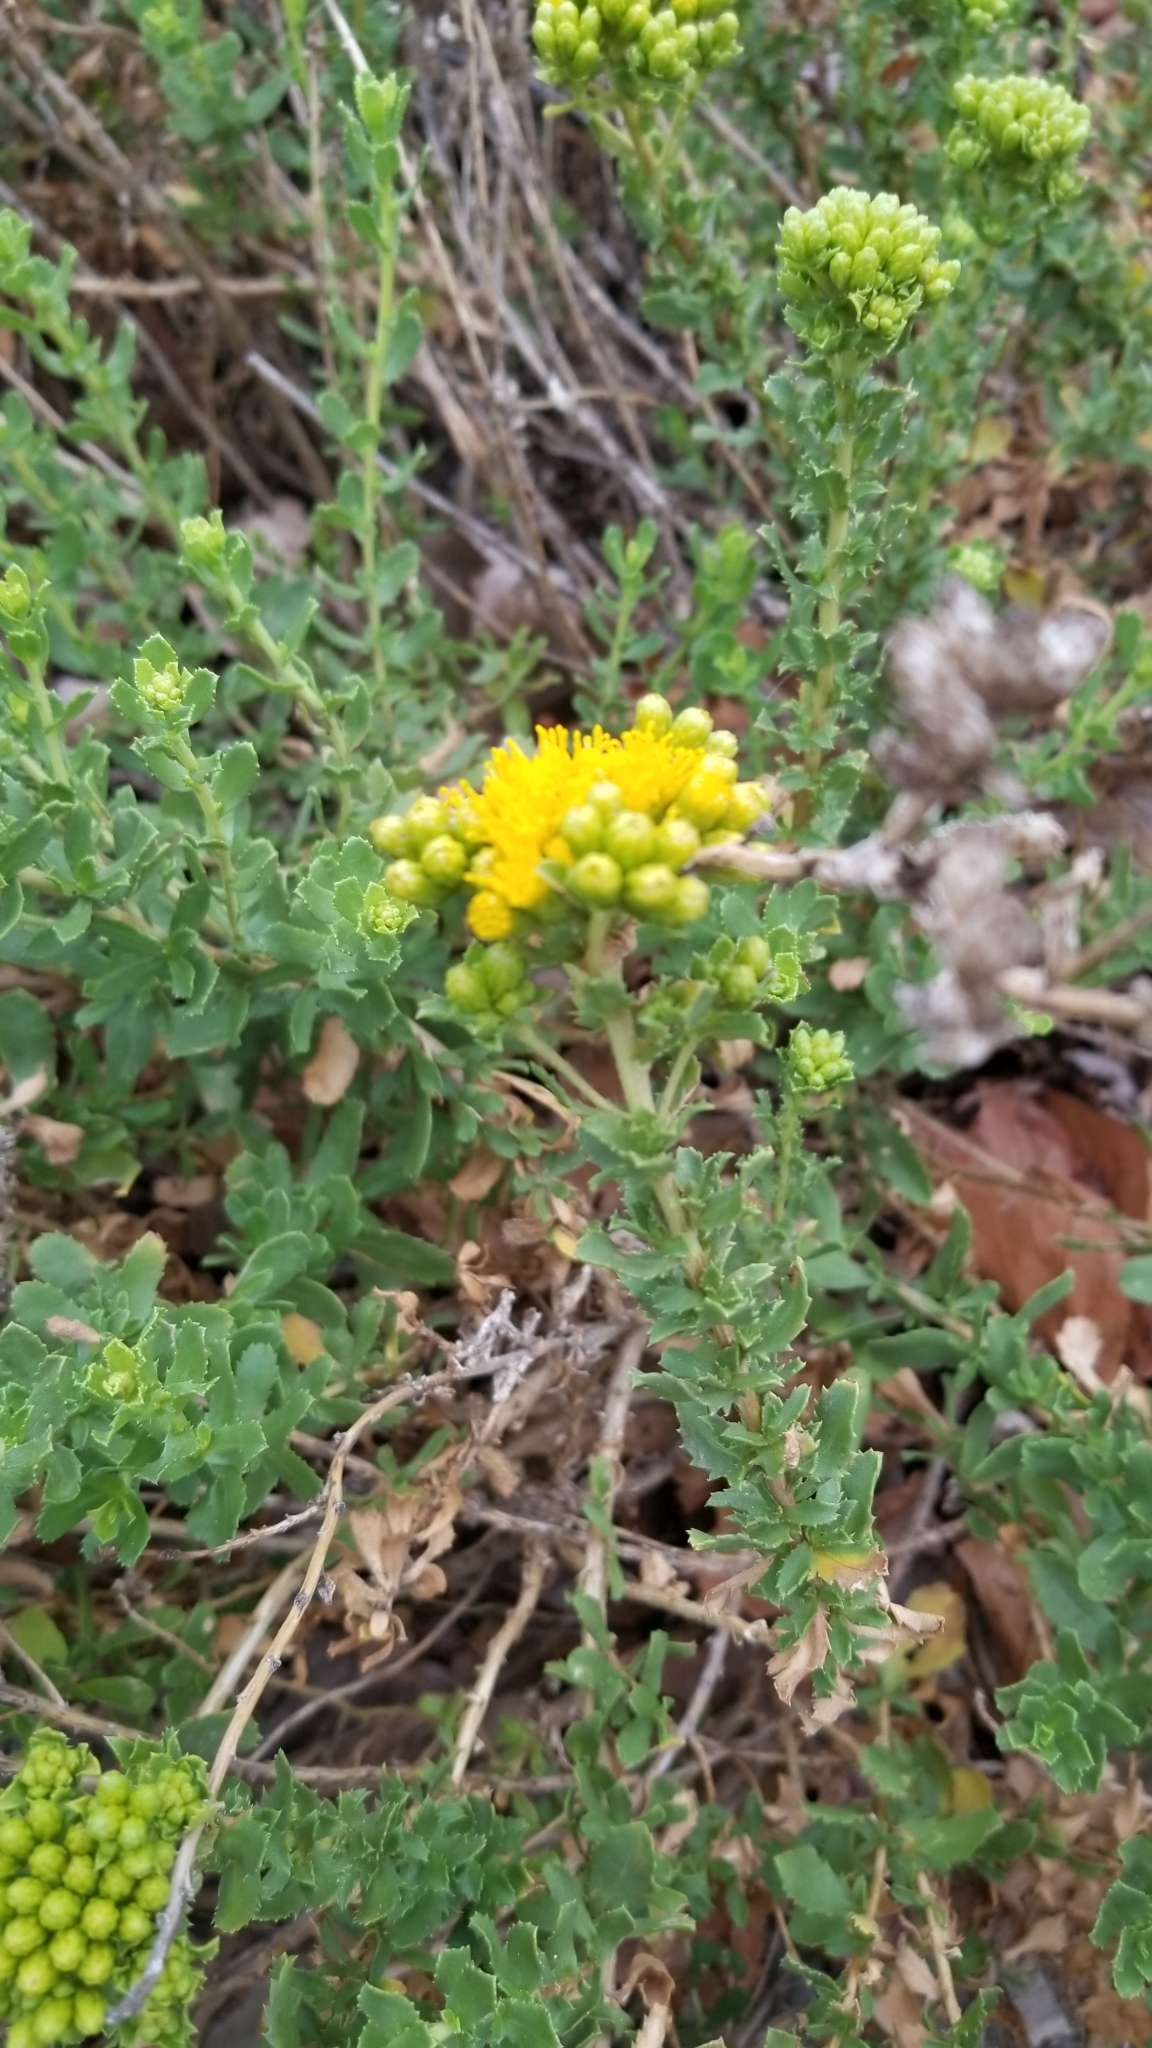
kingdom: Plantae
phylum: Tracheophyta
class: Magnoliopsida
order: Asterales
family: Asteraceae
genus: Isocoma
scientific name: Isocoma menziesii
